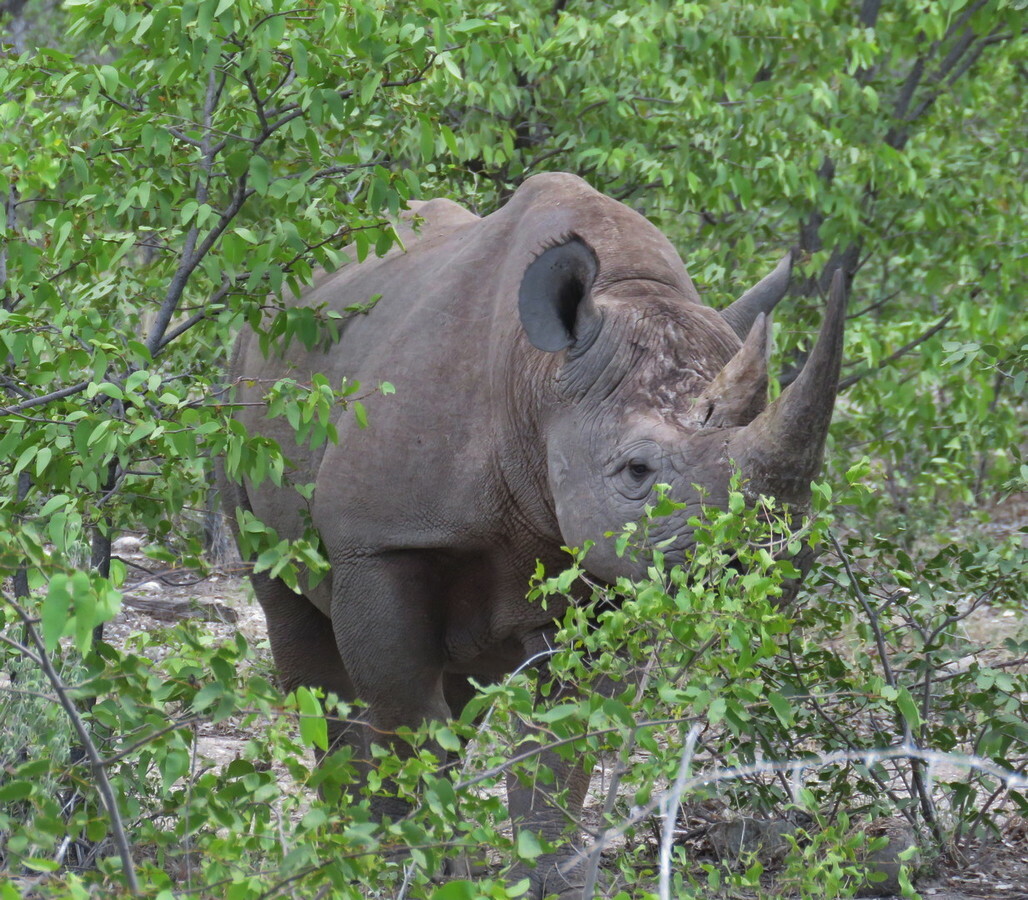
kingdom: Animalia
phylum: Chordata
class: Mammalia
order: Perissodactyla
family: Rhinocerotidae
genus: Diceros
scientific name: Diceros bicornis
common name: Black rhinoceros
